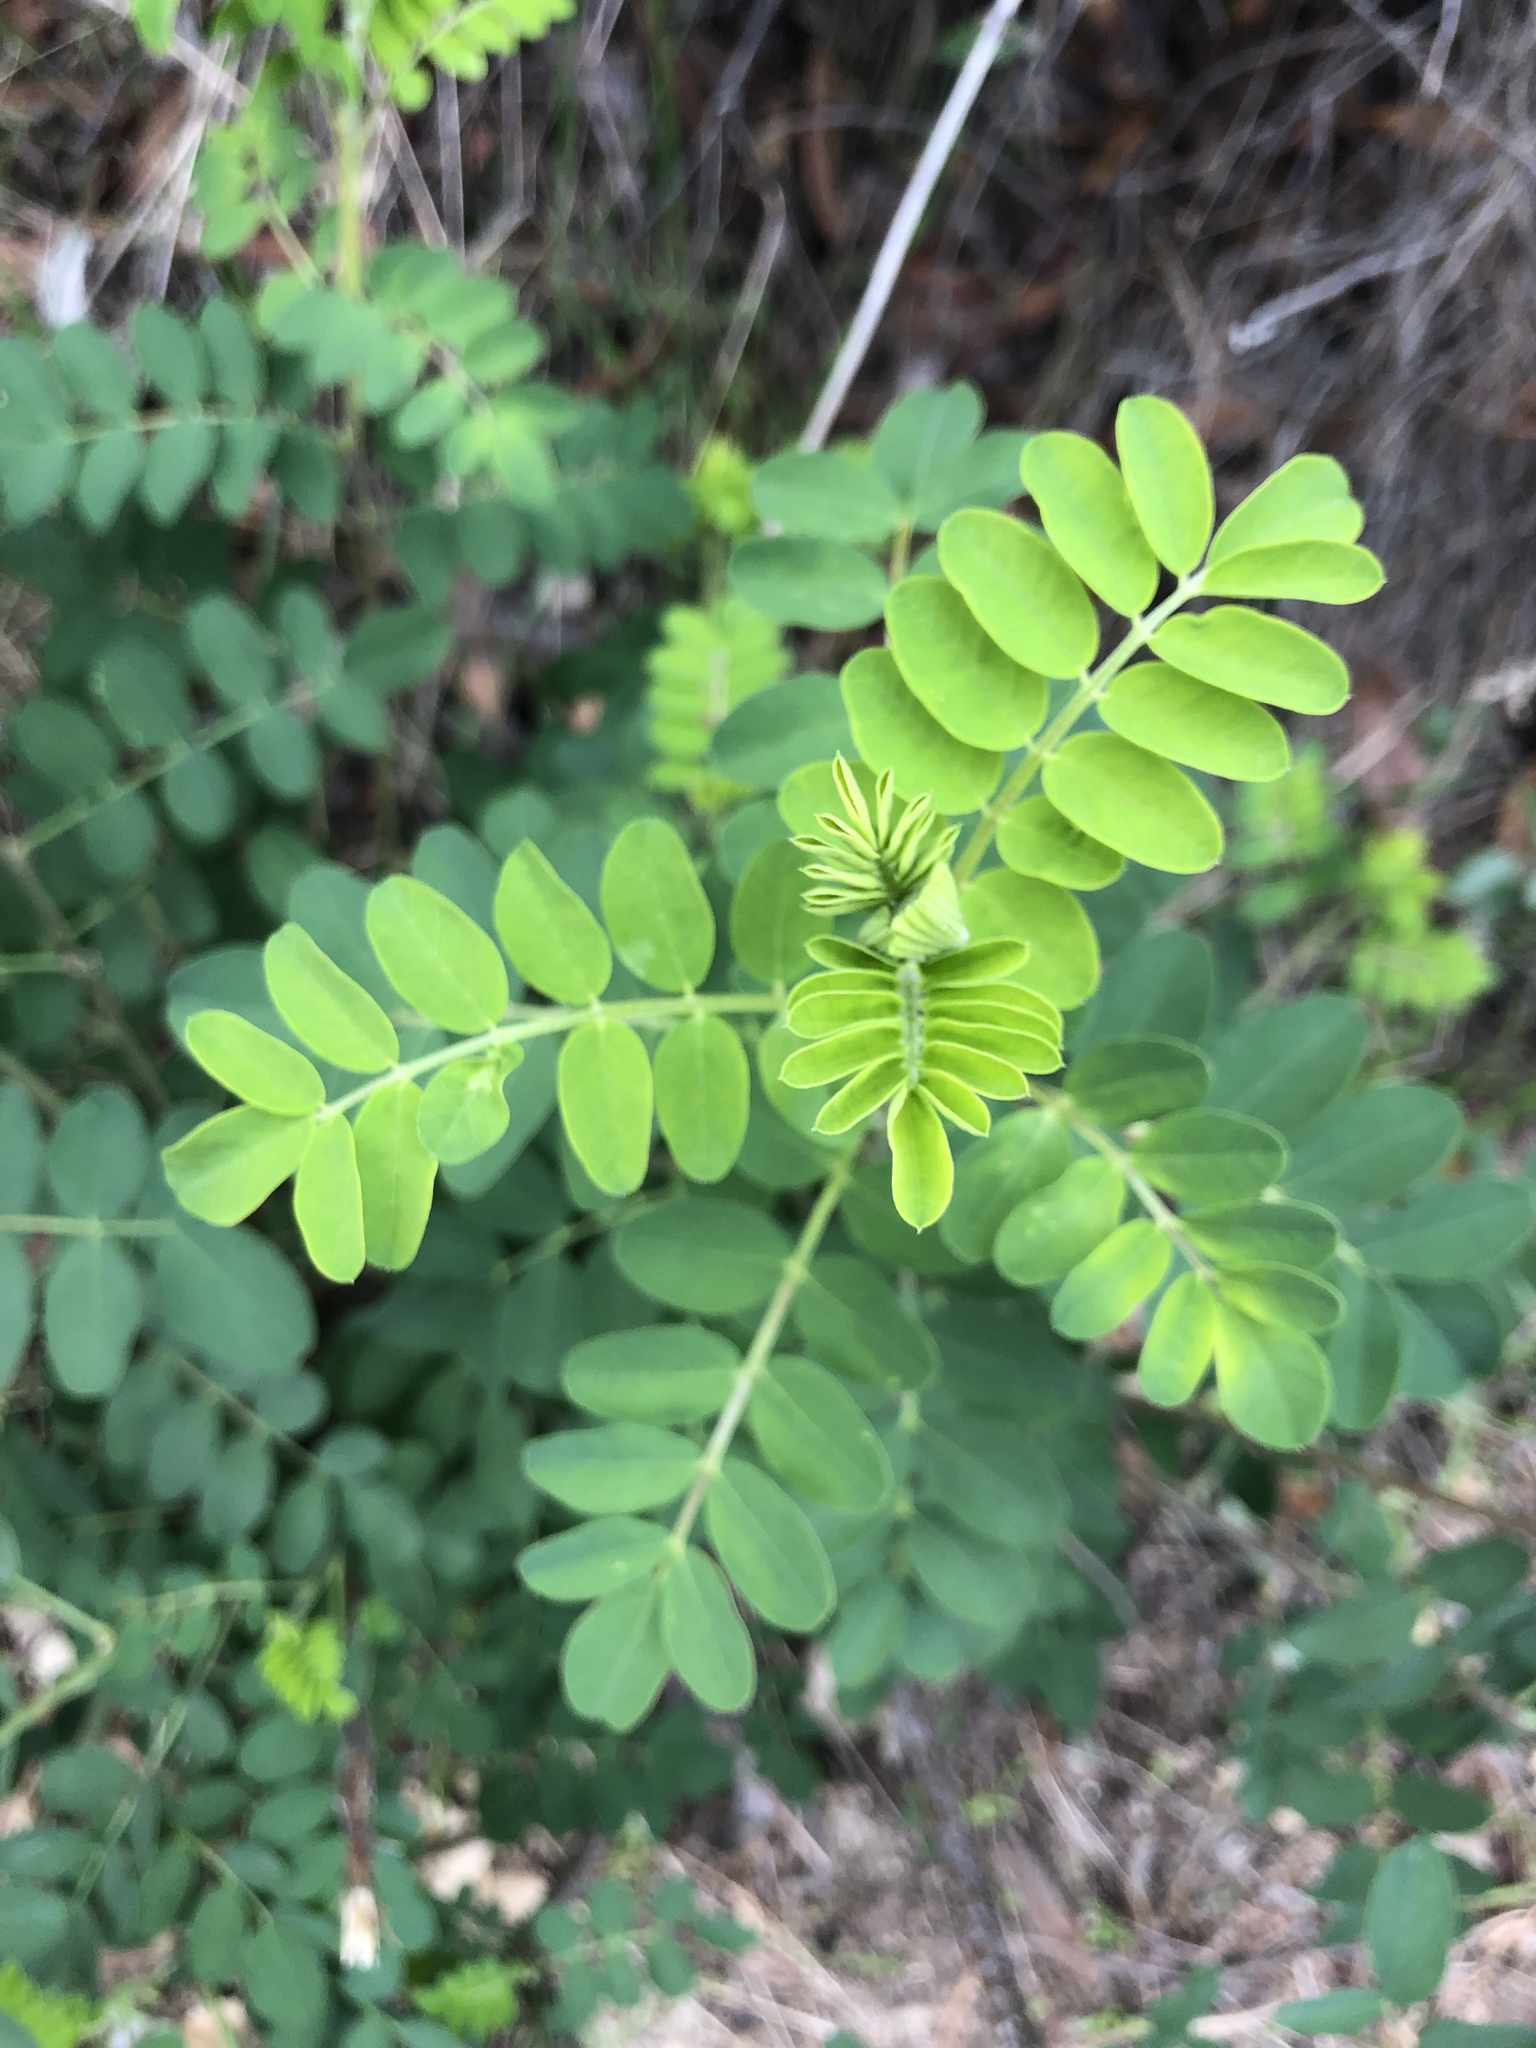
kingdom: Plantae
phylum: Tracheophyta
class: Magnoliopsida
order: Fabales
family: Fabaceae
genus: Colutea
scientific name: Colutea arborescens
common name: Bladder-senna
